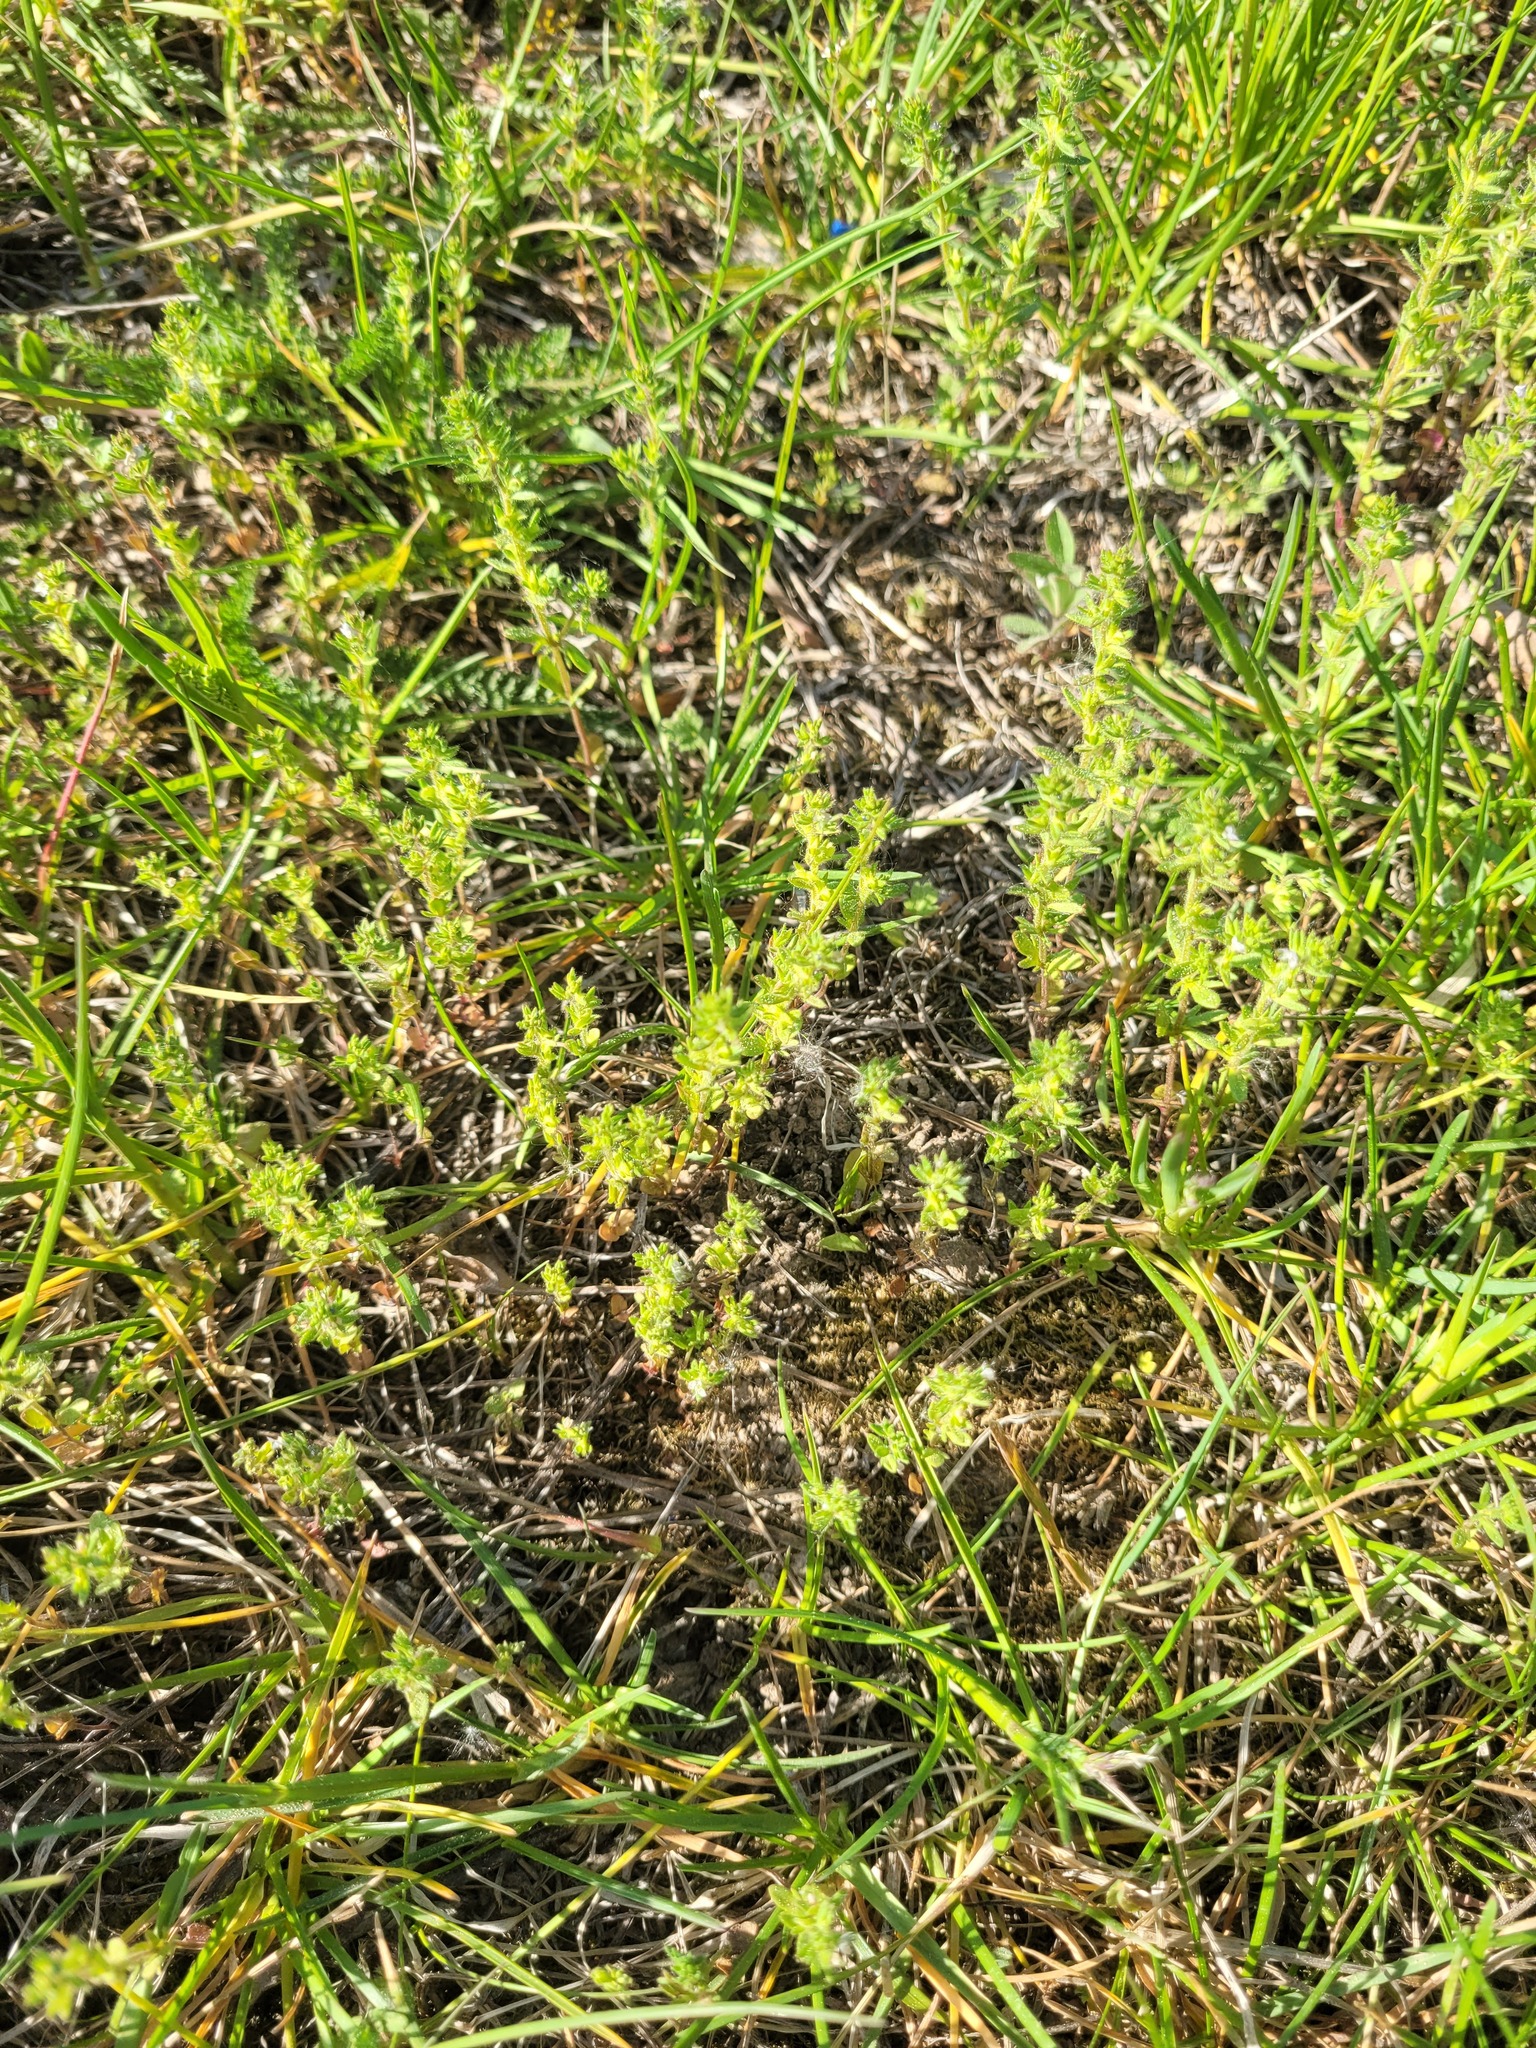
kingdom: Plantae
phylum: Tracheophyta
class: Magnoliopsida
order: Lamiales
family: Plantaginaceae
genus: Veronica
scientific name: Veronica arvensis
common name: Corn speedwell
